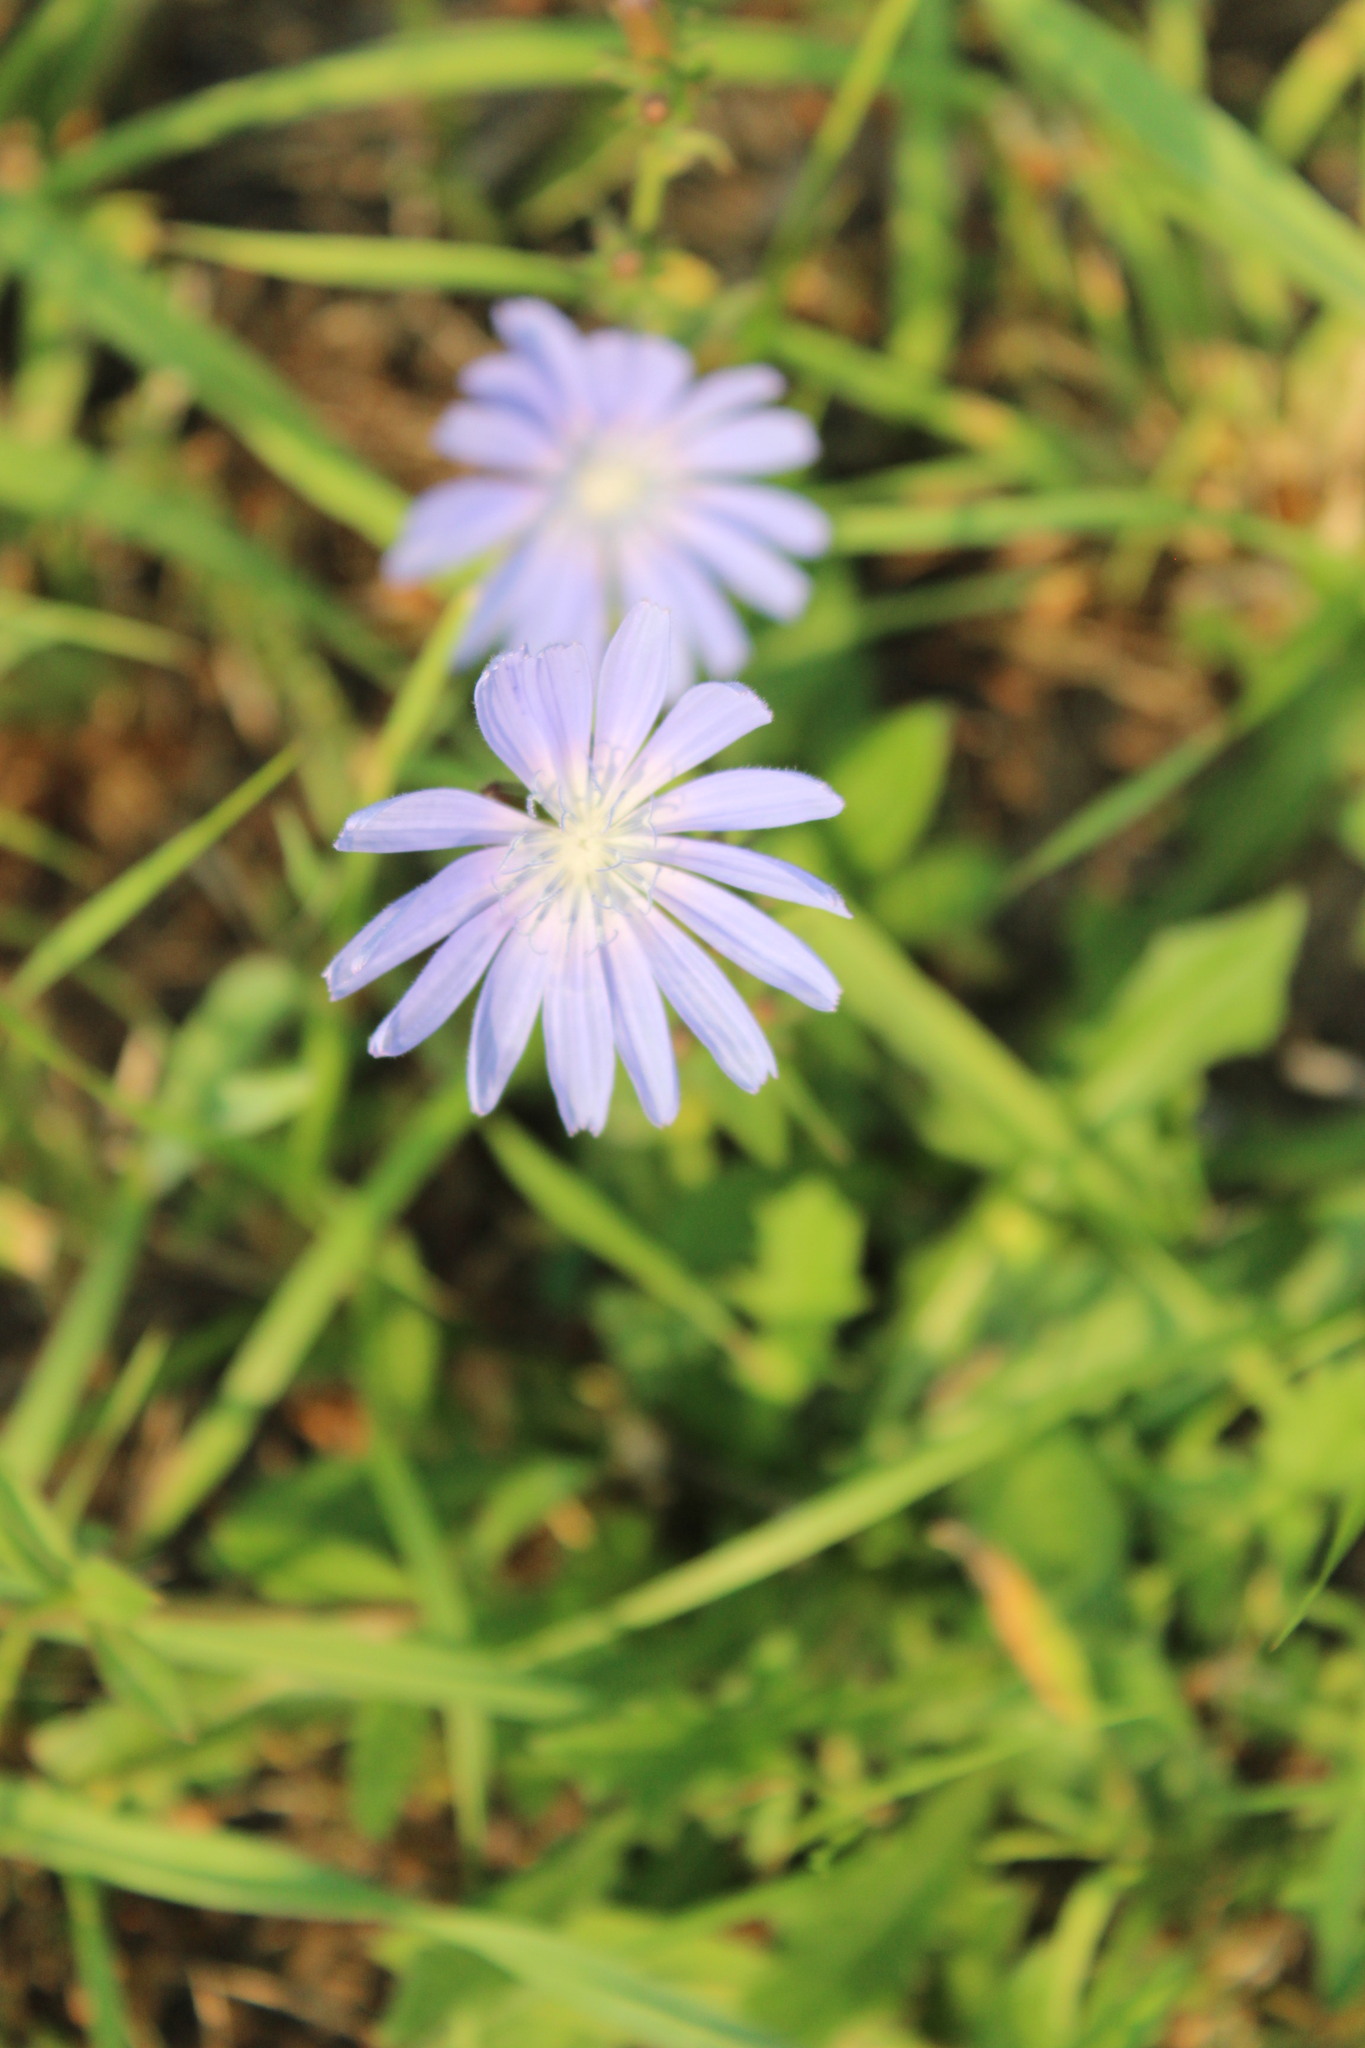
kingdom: Plantae
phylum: Tracheophyta
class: Magnoliopsida
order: Asterales
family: Asteraceae
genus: Cichorium
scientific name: Cichorium intybus
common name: Chicory
